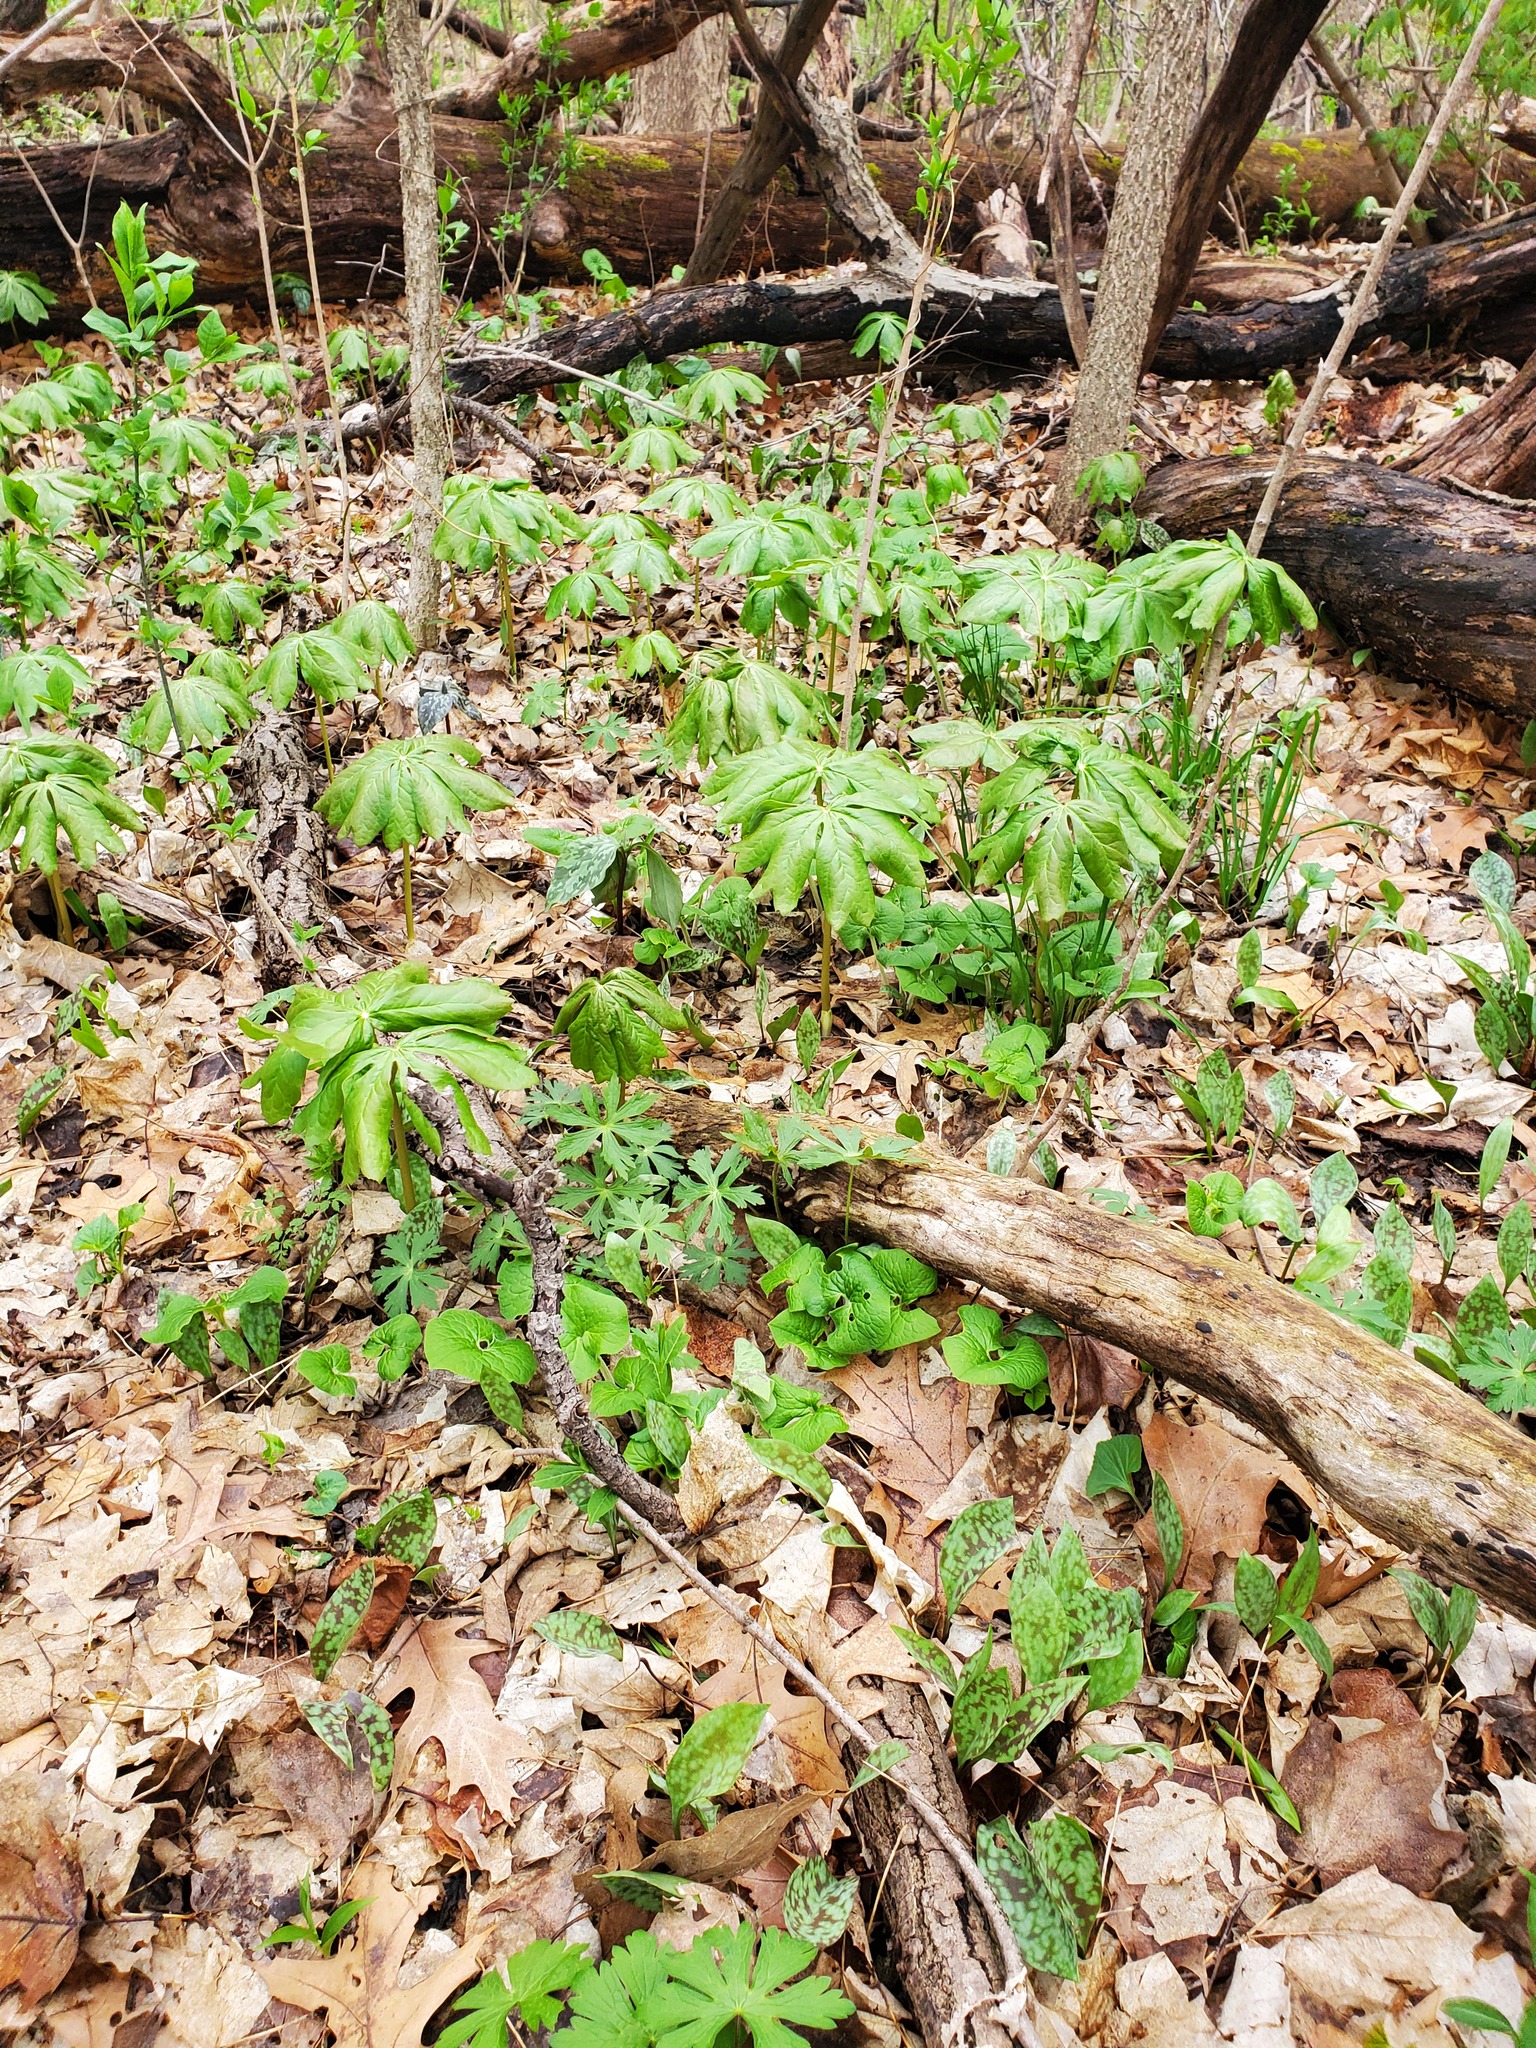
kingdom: Plantae
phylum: Tracheophyta
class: Magnoliopsida
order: Ranunculales
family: Berberidaceae
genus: Podophyllum
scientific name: Podophyllum peltatum
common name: Wild mandrake
